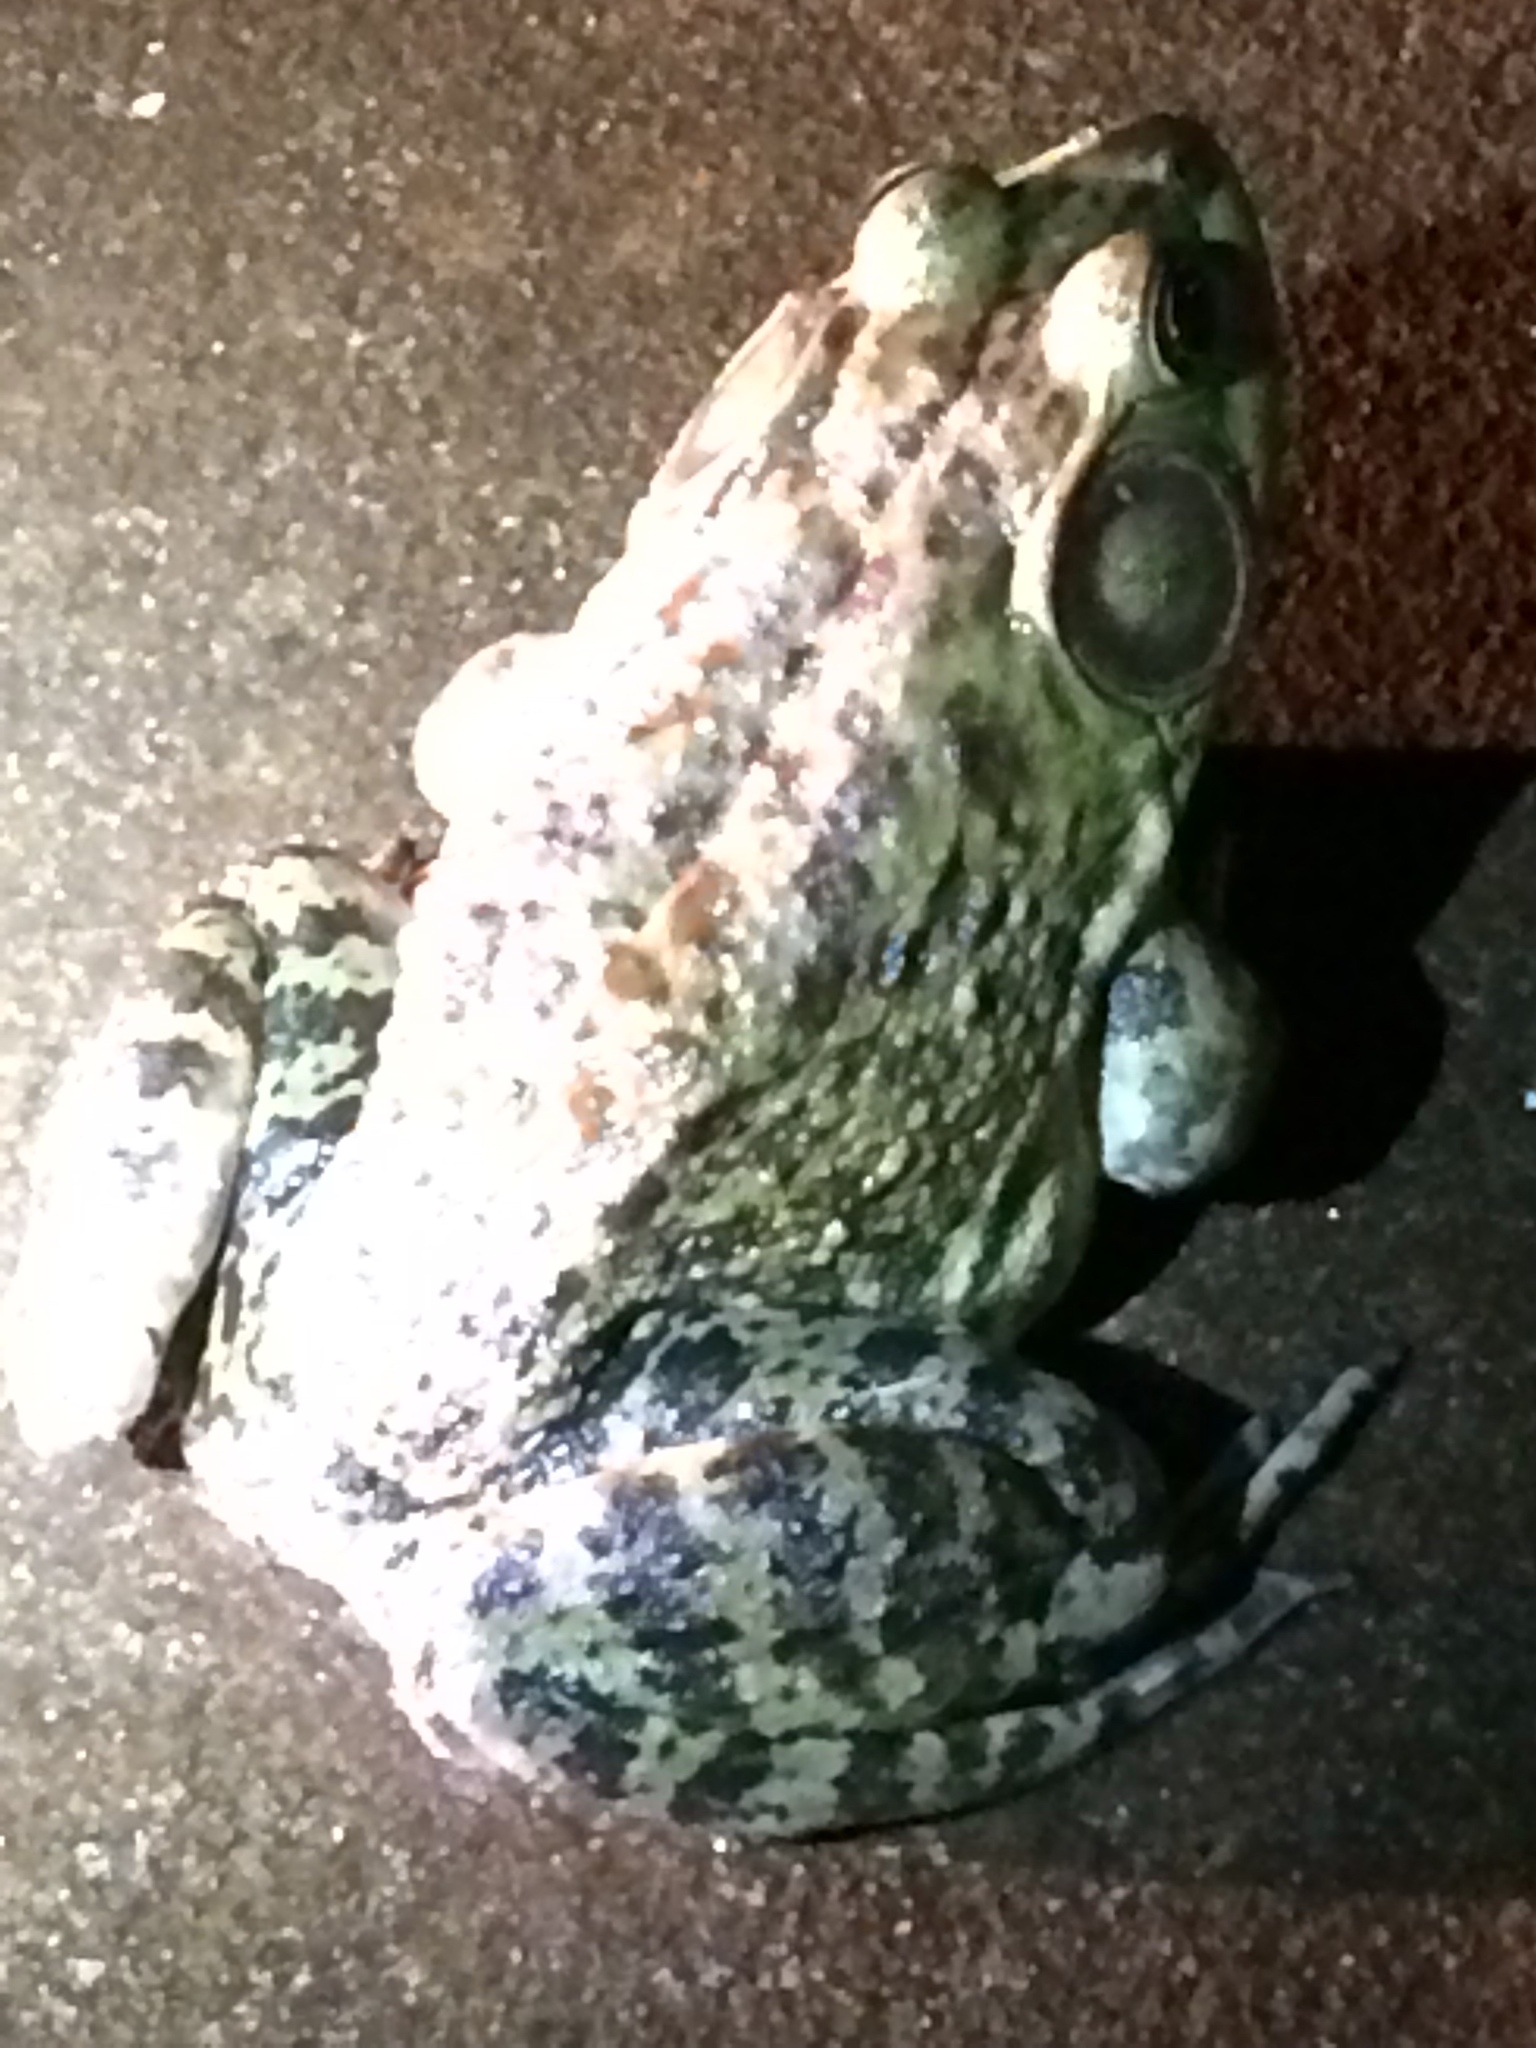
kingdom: Animalia
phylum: Chordata
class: Amphibia
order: Anura
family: Ranidae
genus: Lithobates
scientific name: Lithobates catesbeianus
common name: American bullfrog
